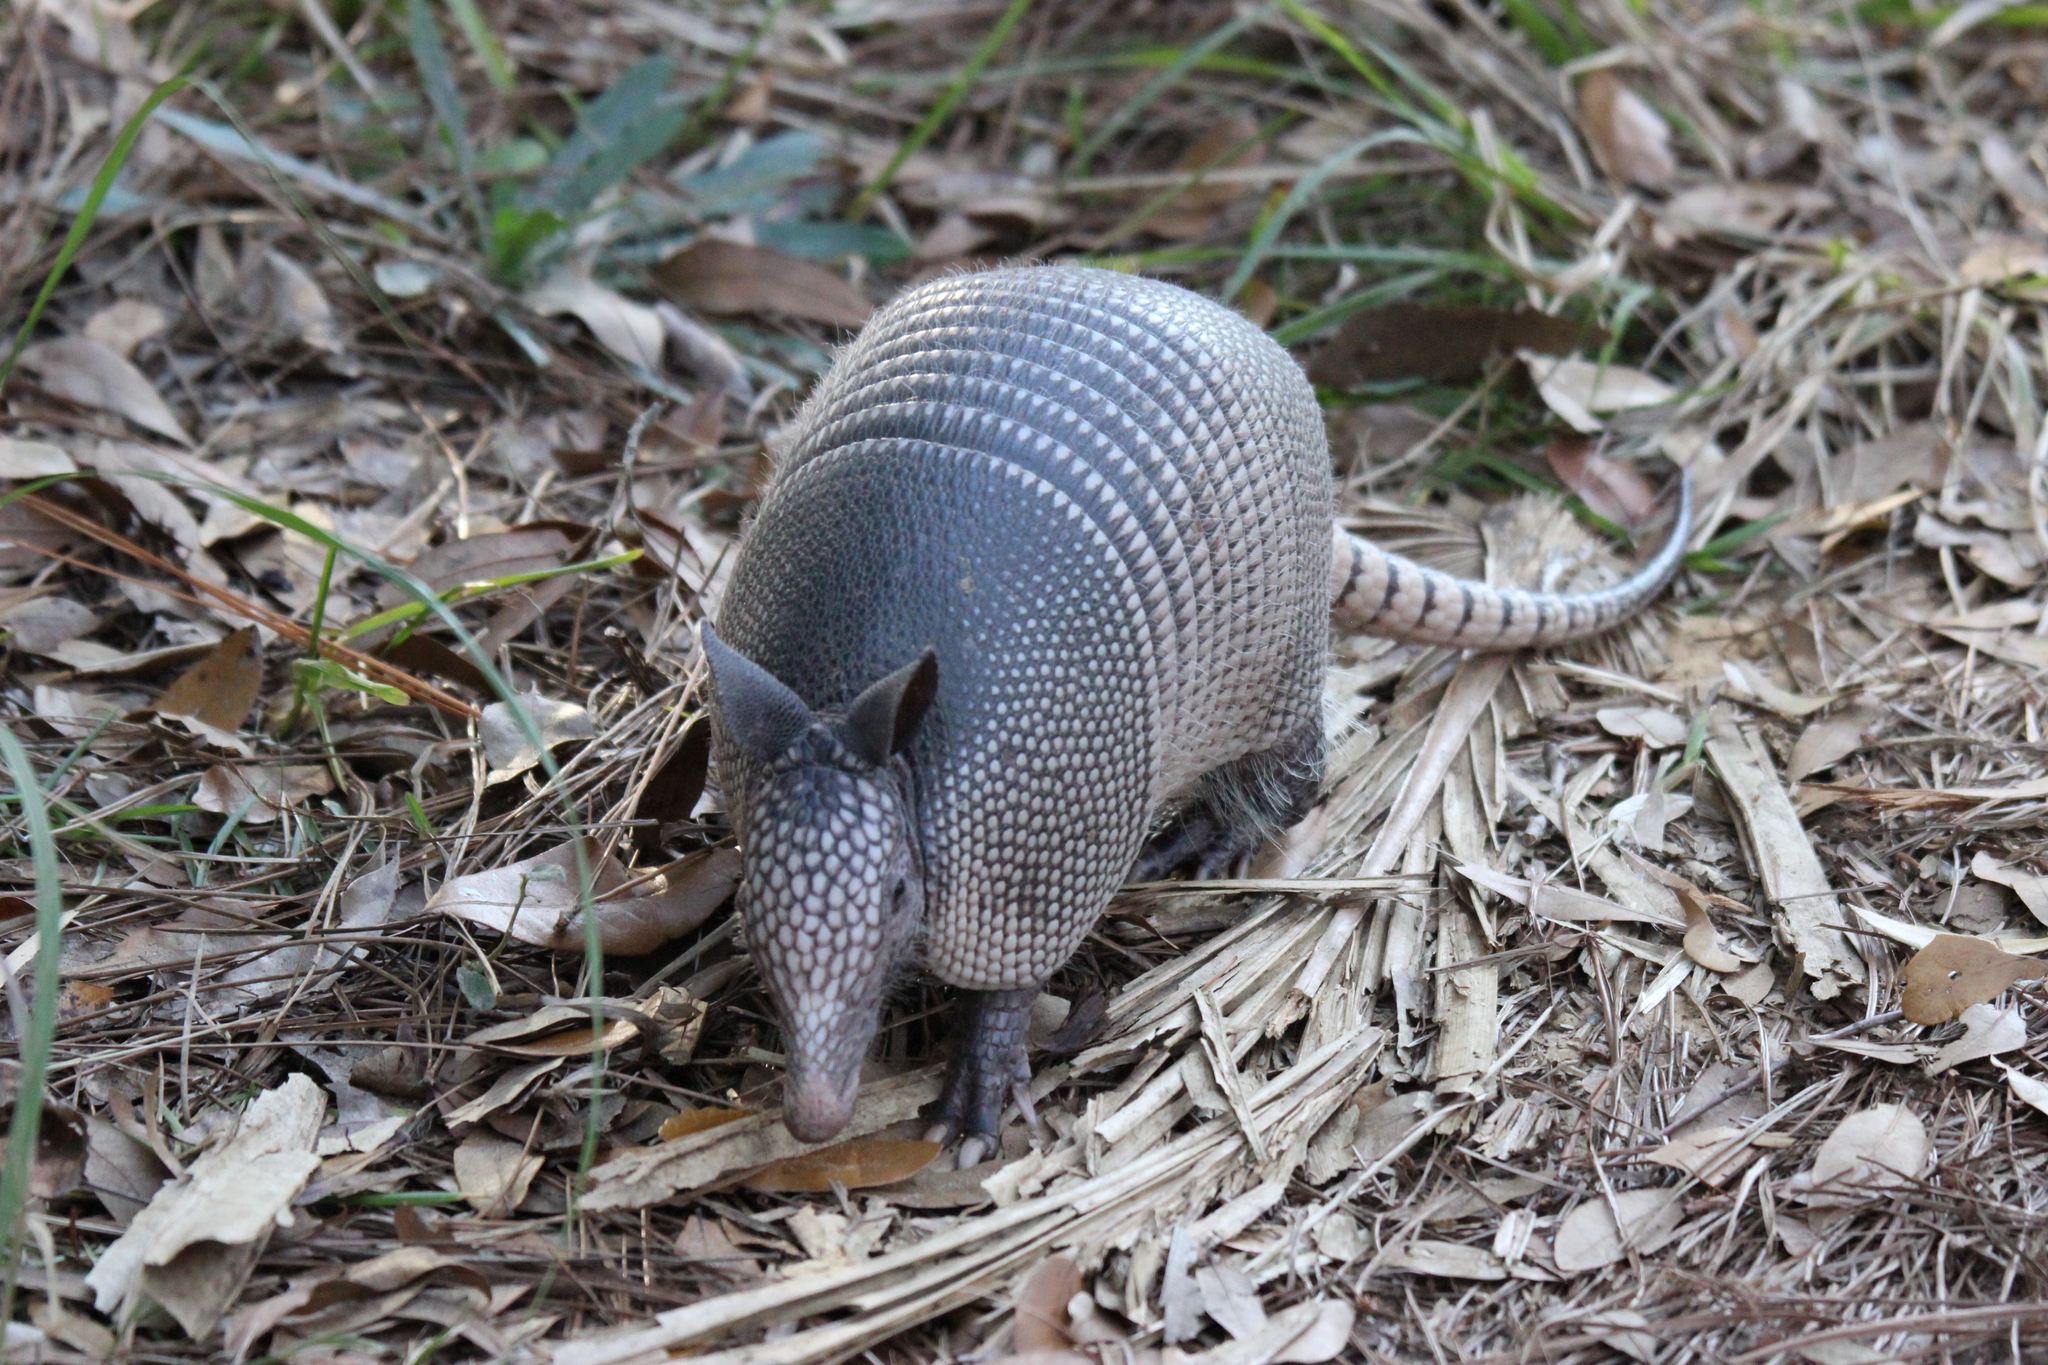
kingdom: Animalia
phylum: Chordata
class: Mammalia
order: Cingulata
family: Dasypodidae
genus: Dasypus
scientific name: Dasypus novemcinctus
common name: Nine-banded armadillo
